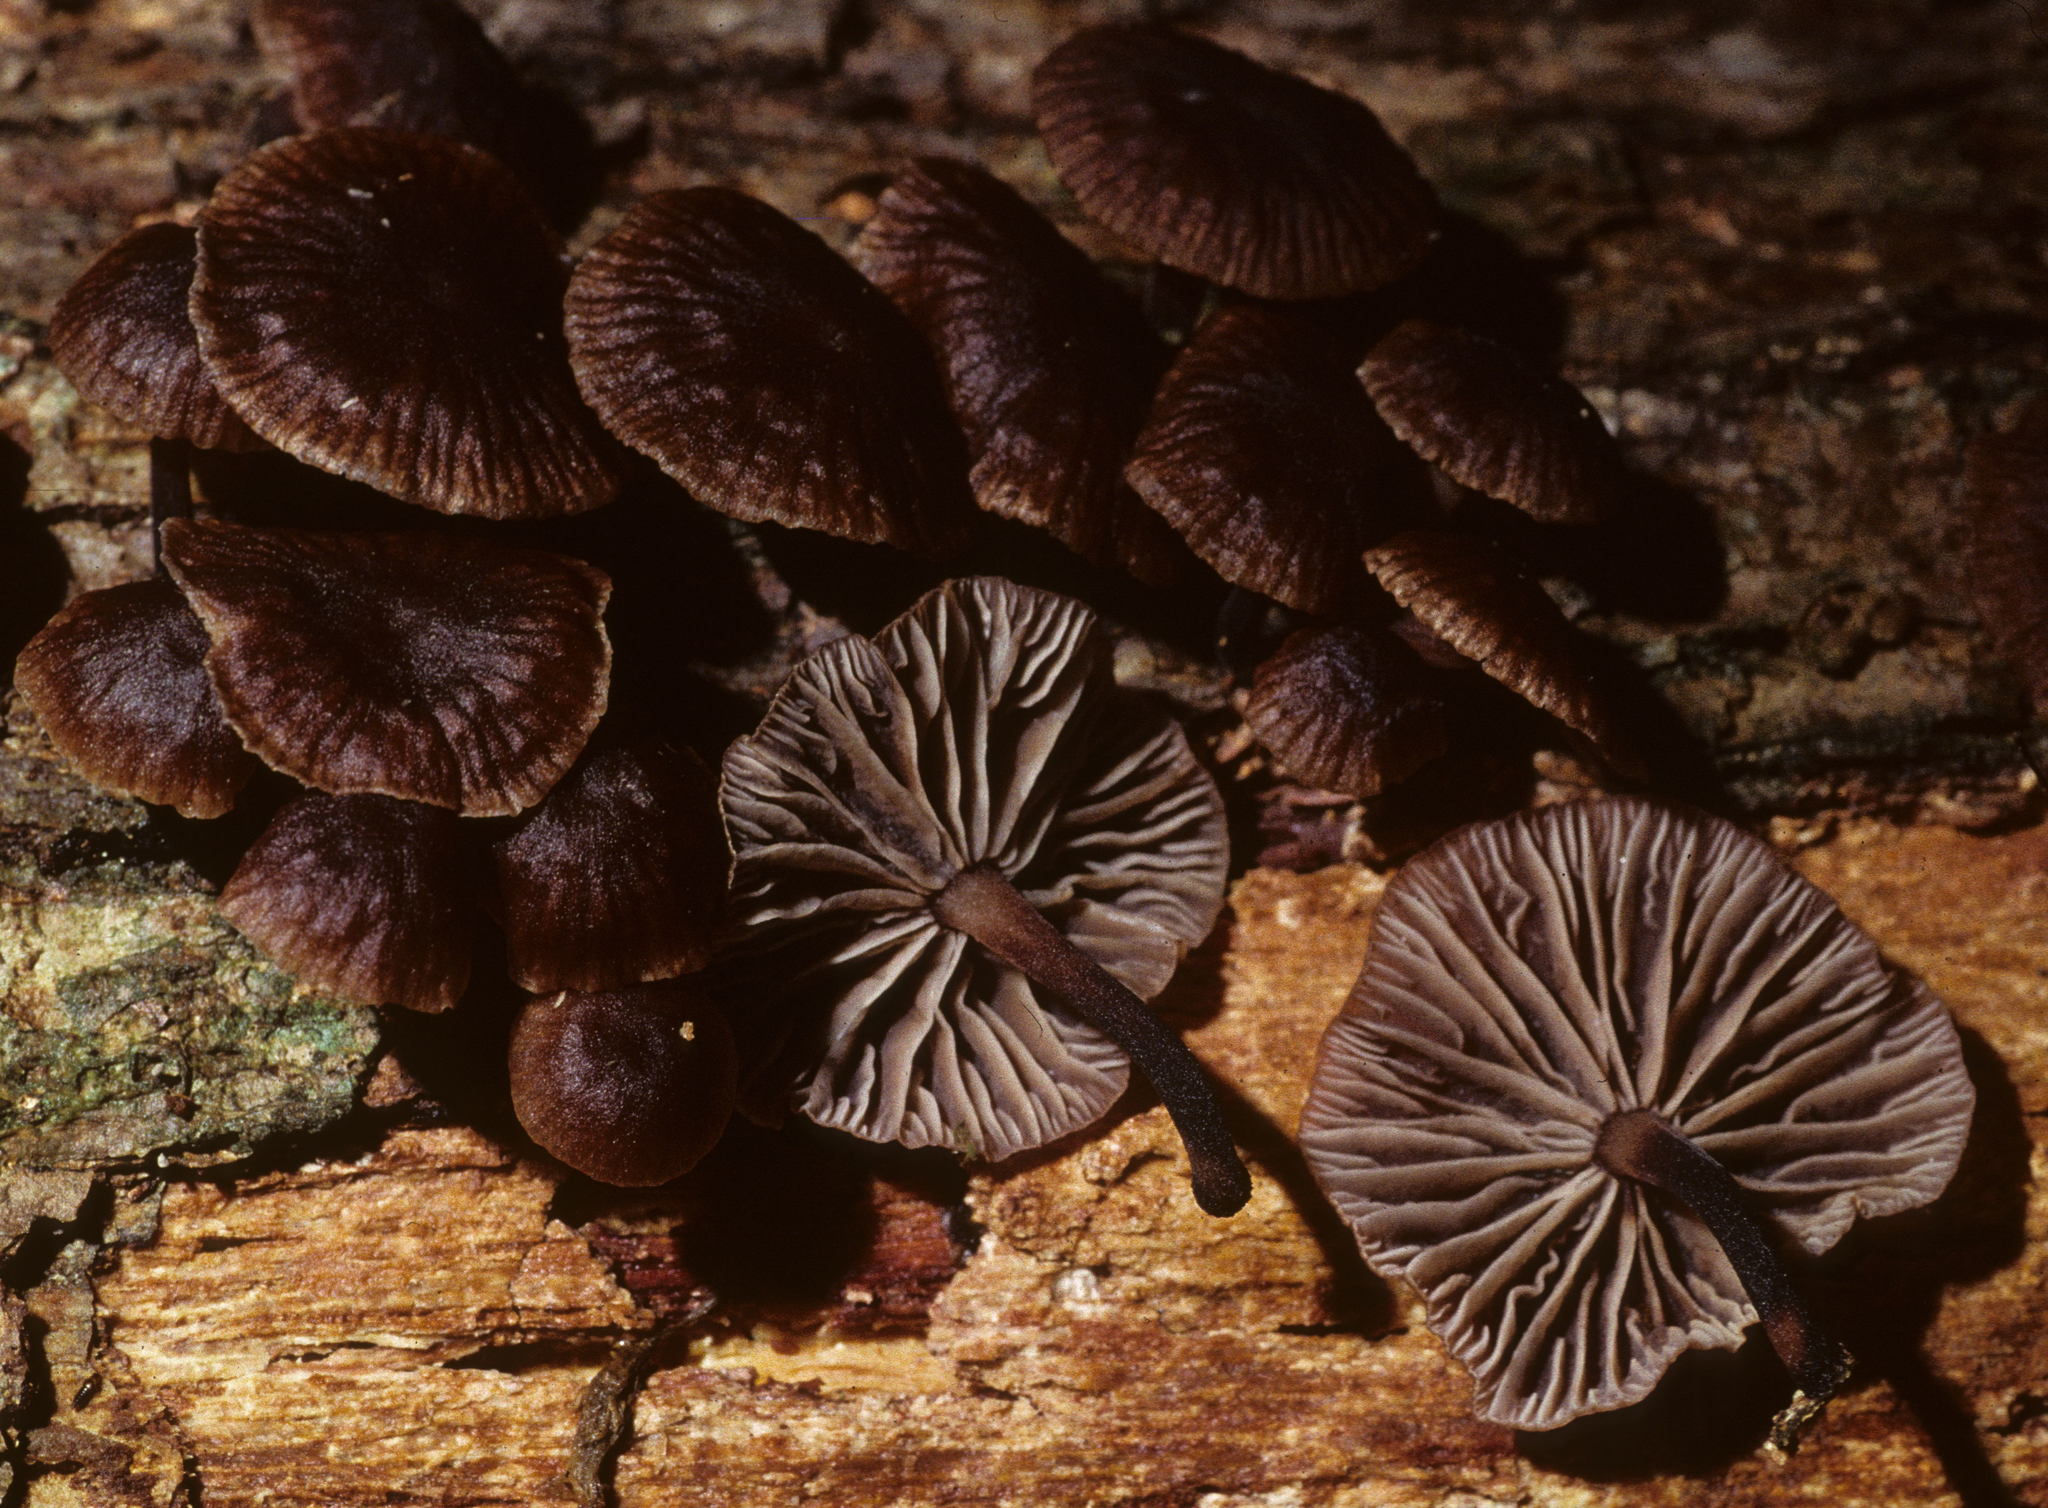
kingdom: Fungi
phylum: Basidiomycota
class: Agaricomycetes
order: Agaricales
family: Omphalotaceae
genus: Gymnopus
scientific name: Gymnopus foetidus
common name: Foetid parachute
